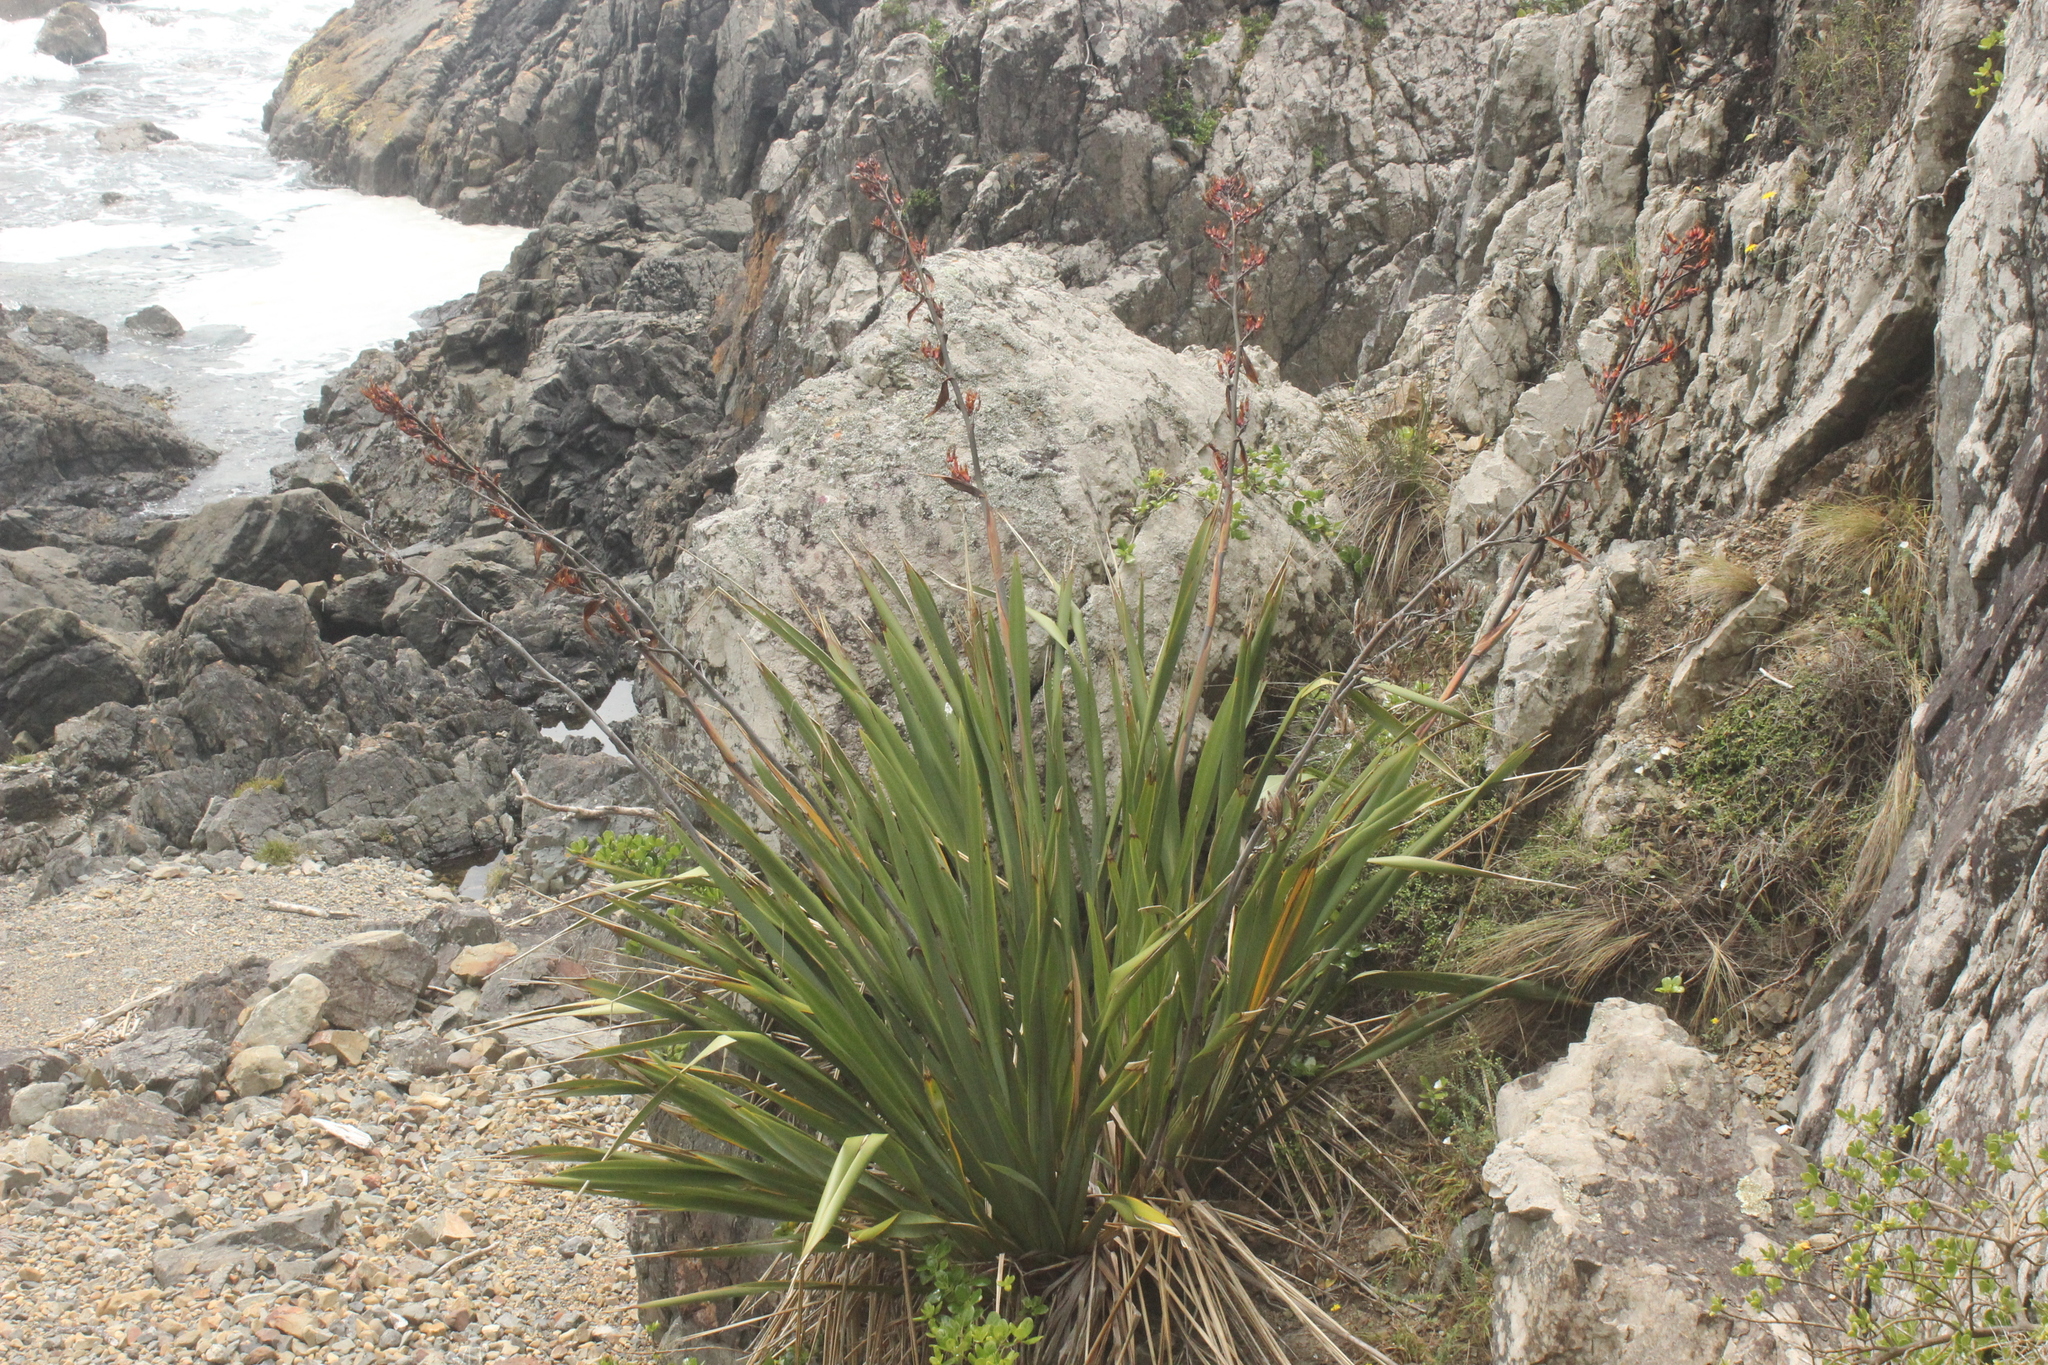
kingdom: Plantae
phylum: Tracheophyta
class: Liliopsida
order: Asparagales
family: Asphodelaceae
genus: Phormium
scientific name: Phormium colensoi
